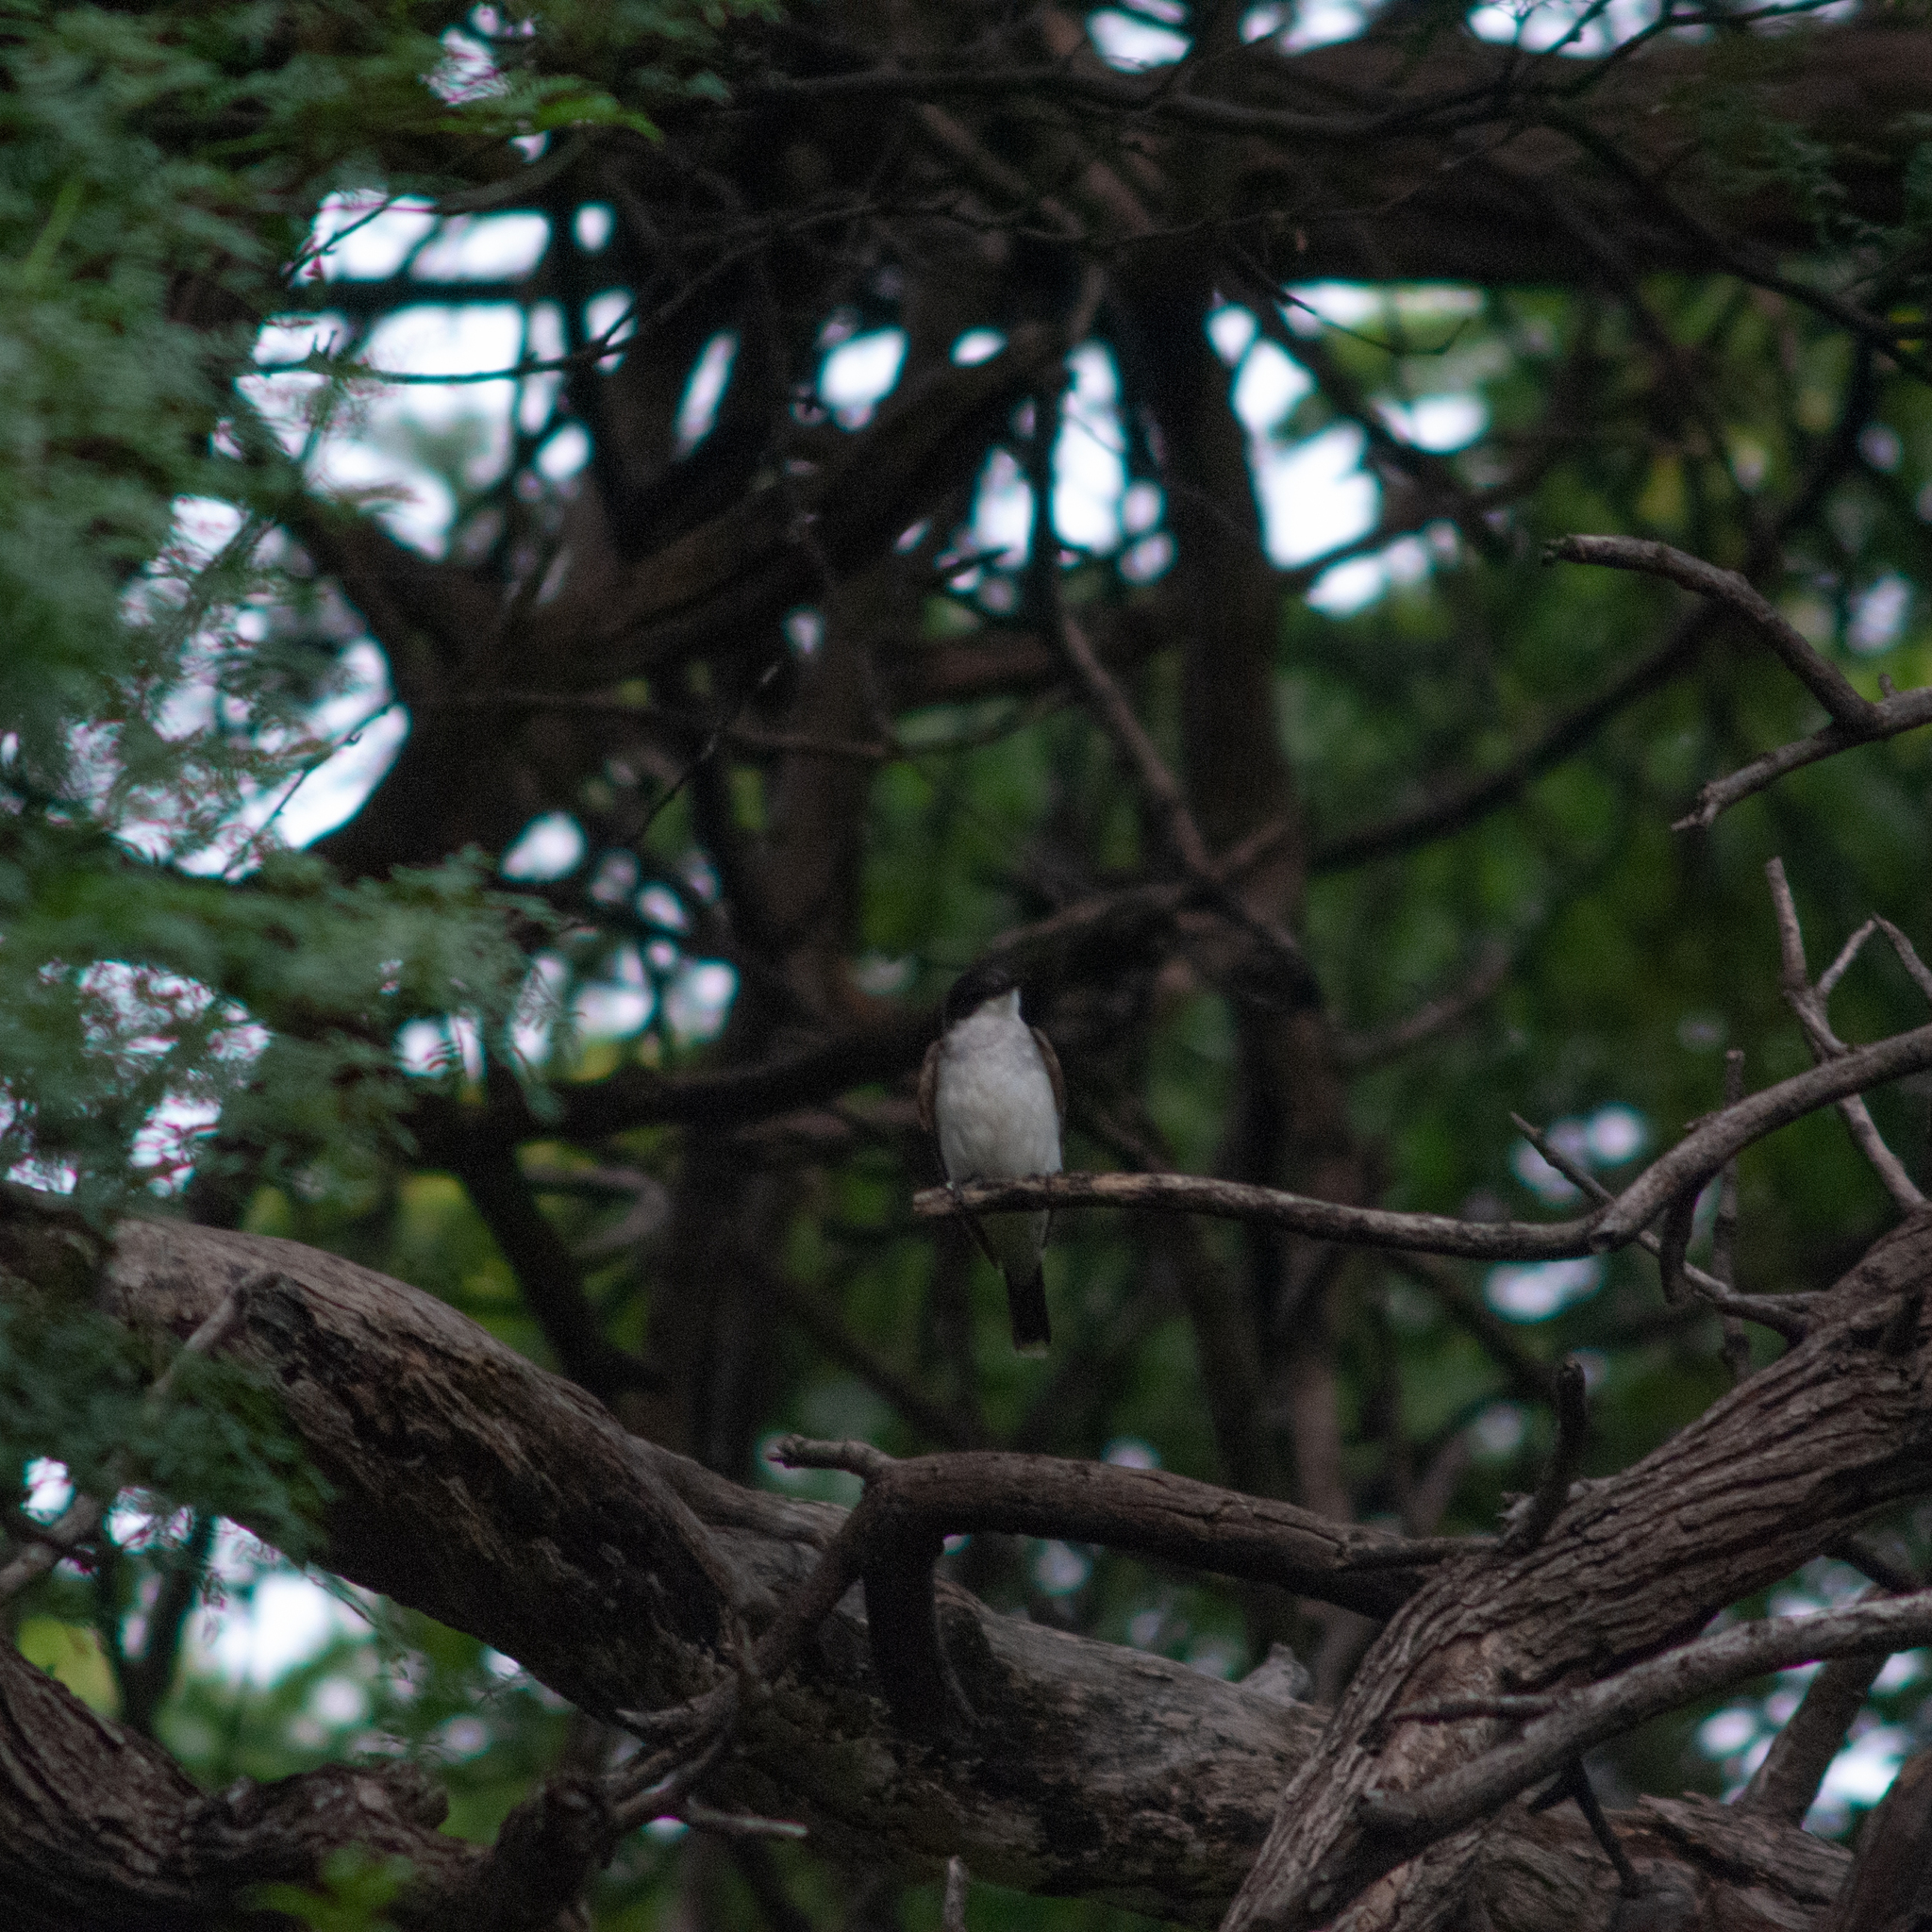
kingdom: Animalia
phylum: Chordata
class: Aves
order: Passeriformes
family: Tyrannidae
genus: Tyrannus
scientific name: Tyrannus tyrannus
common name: Eastern kingbird
